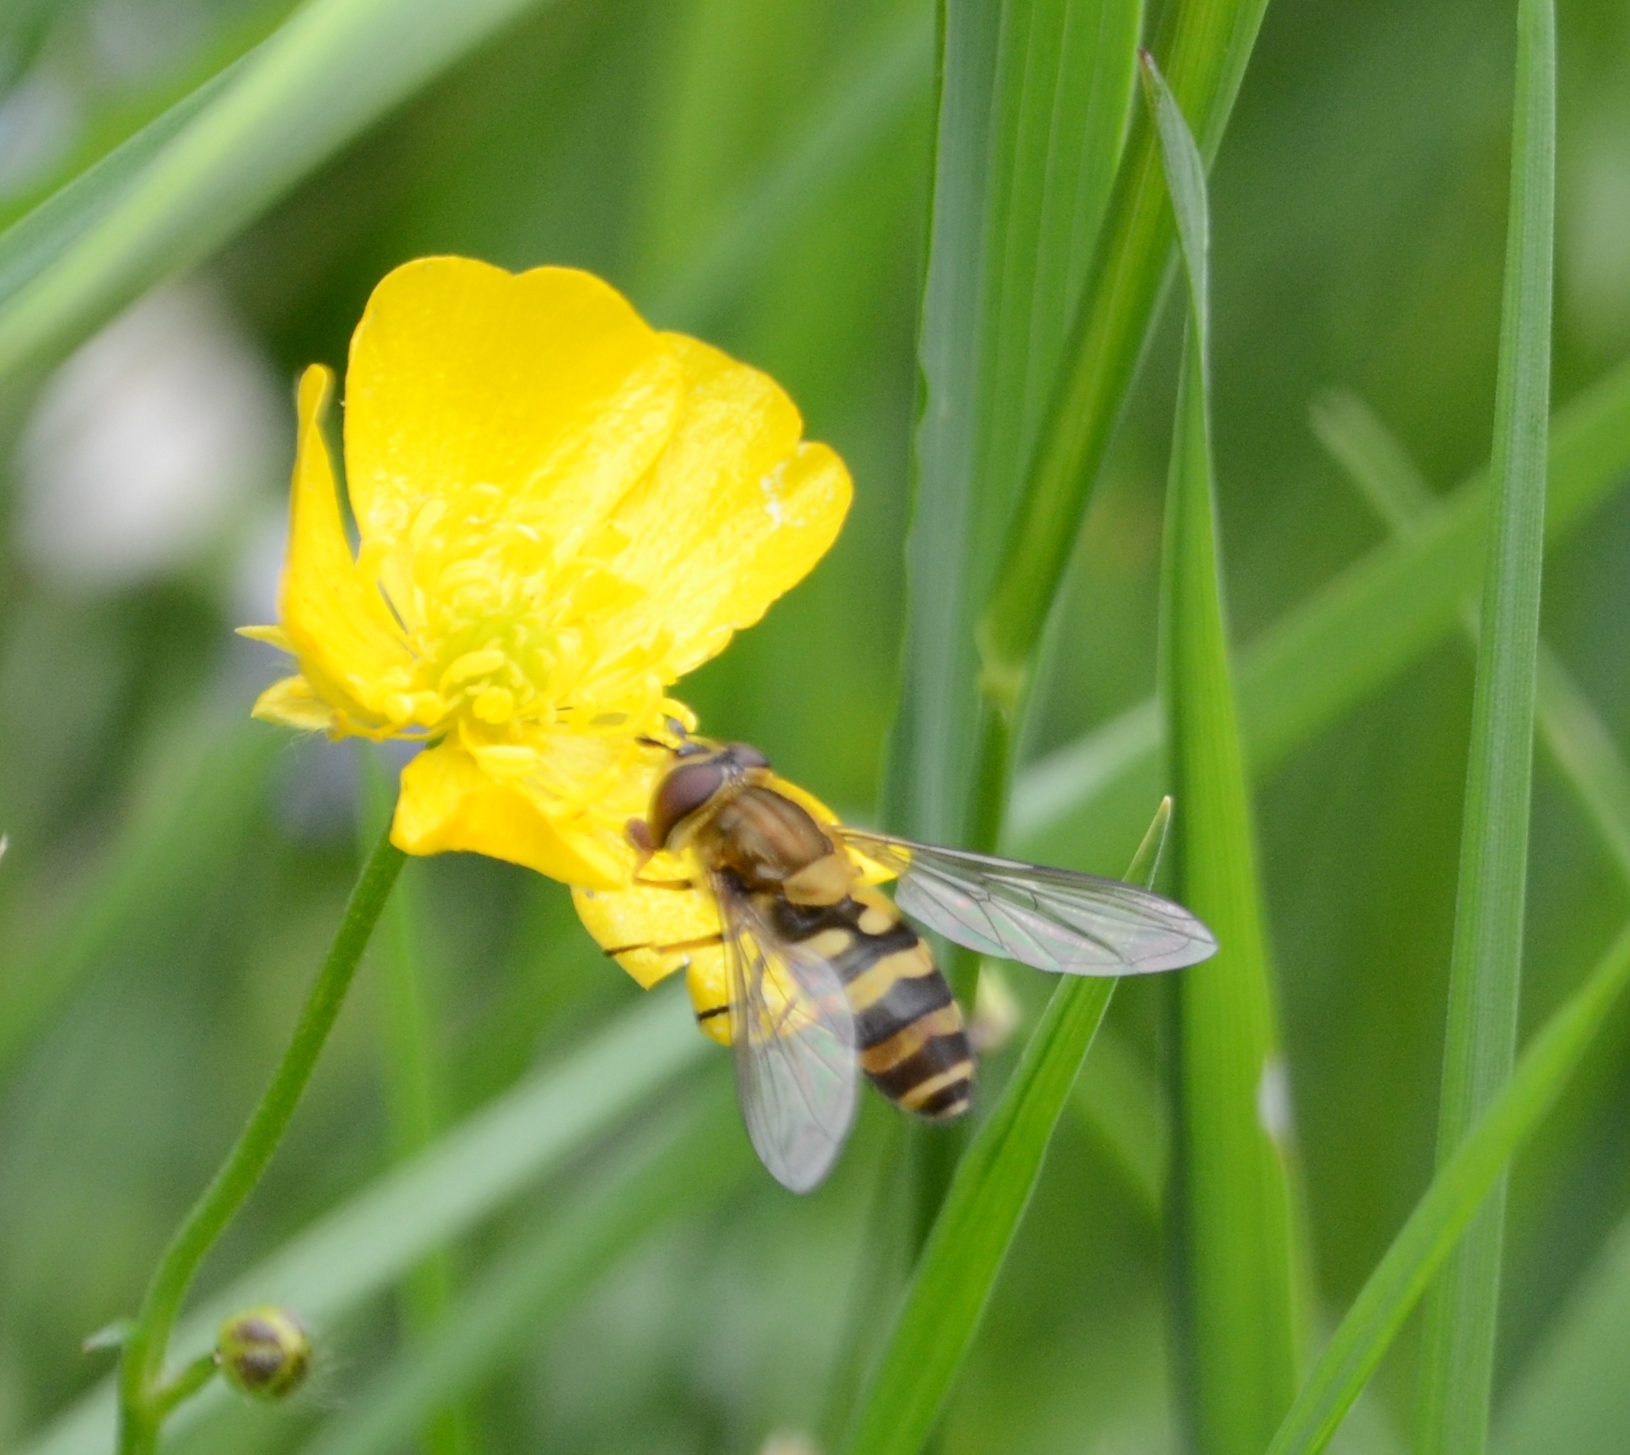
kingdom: Animalia
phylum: Arthropoda
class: Insecta
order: Diptera
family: Syrphidae
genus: Syrphus
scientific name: Syrphus
